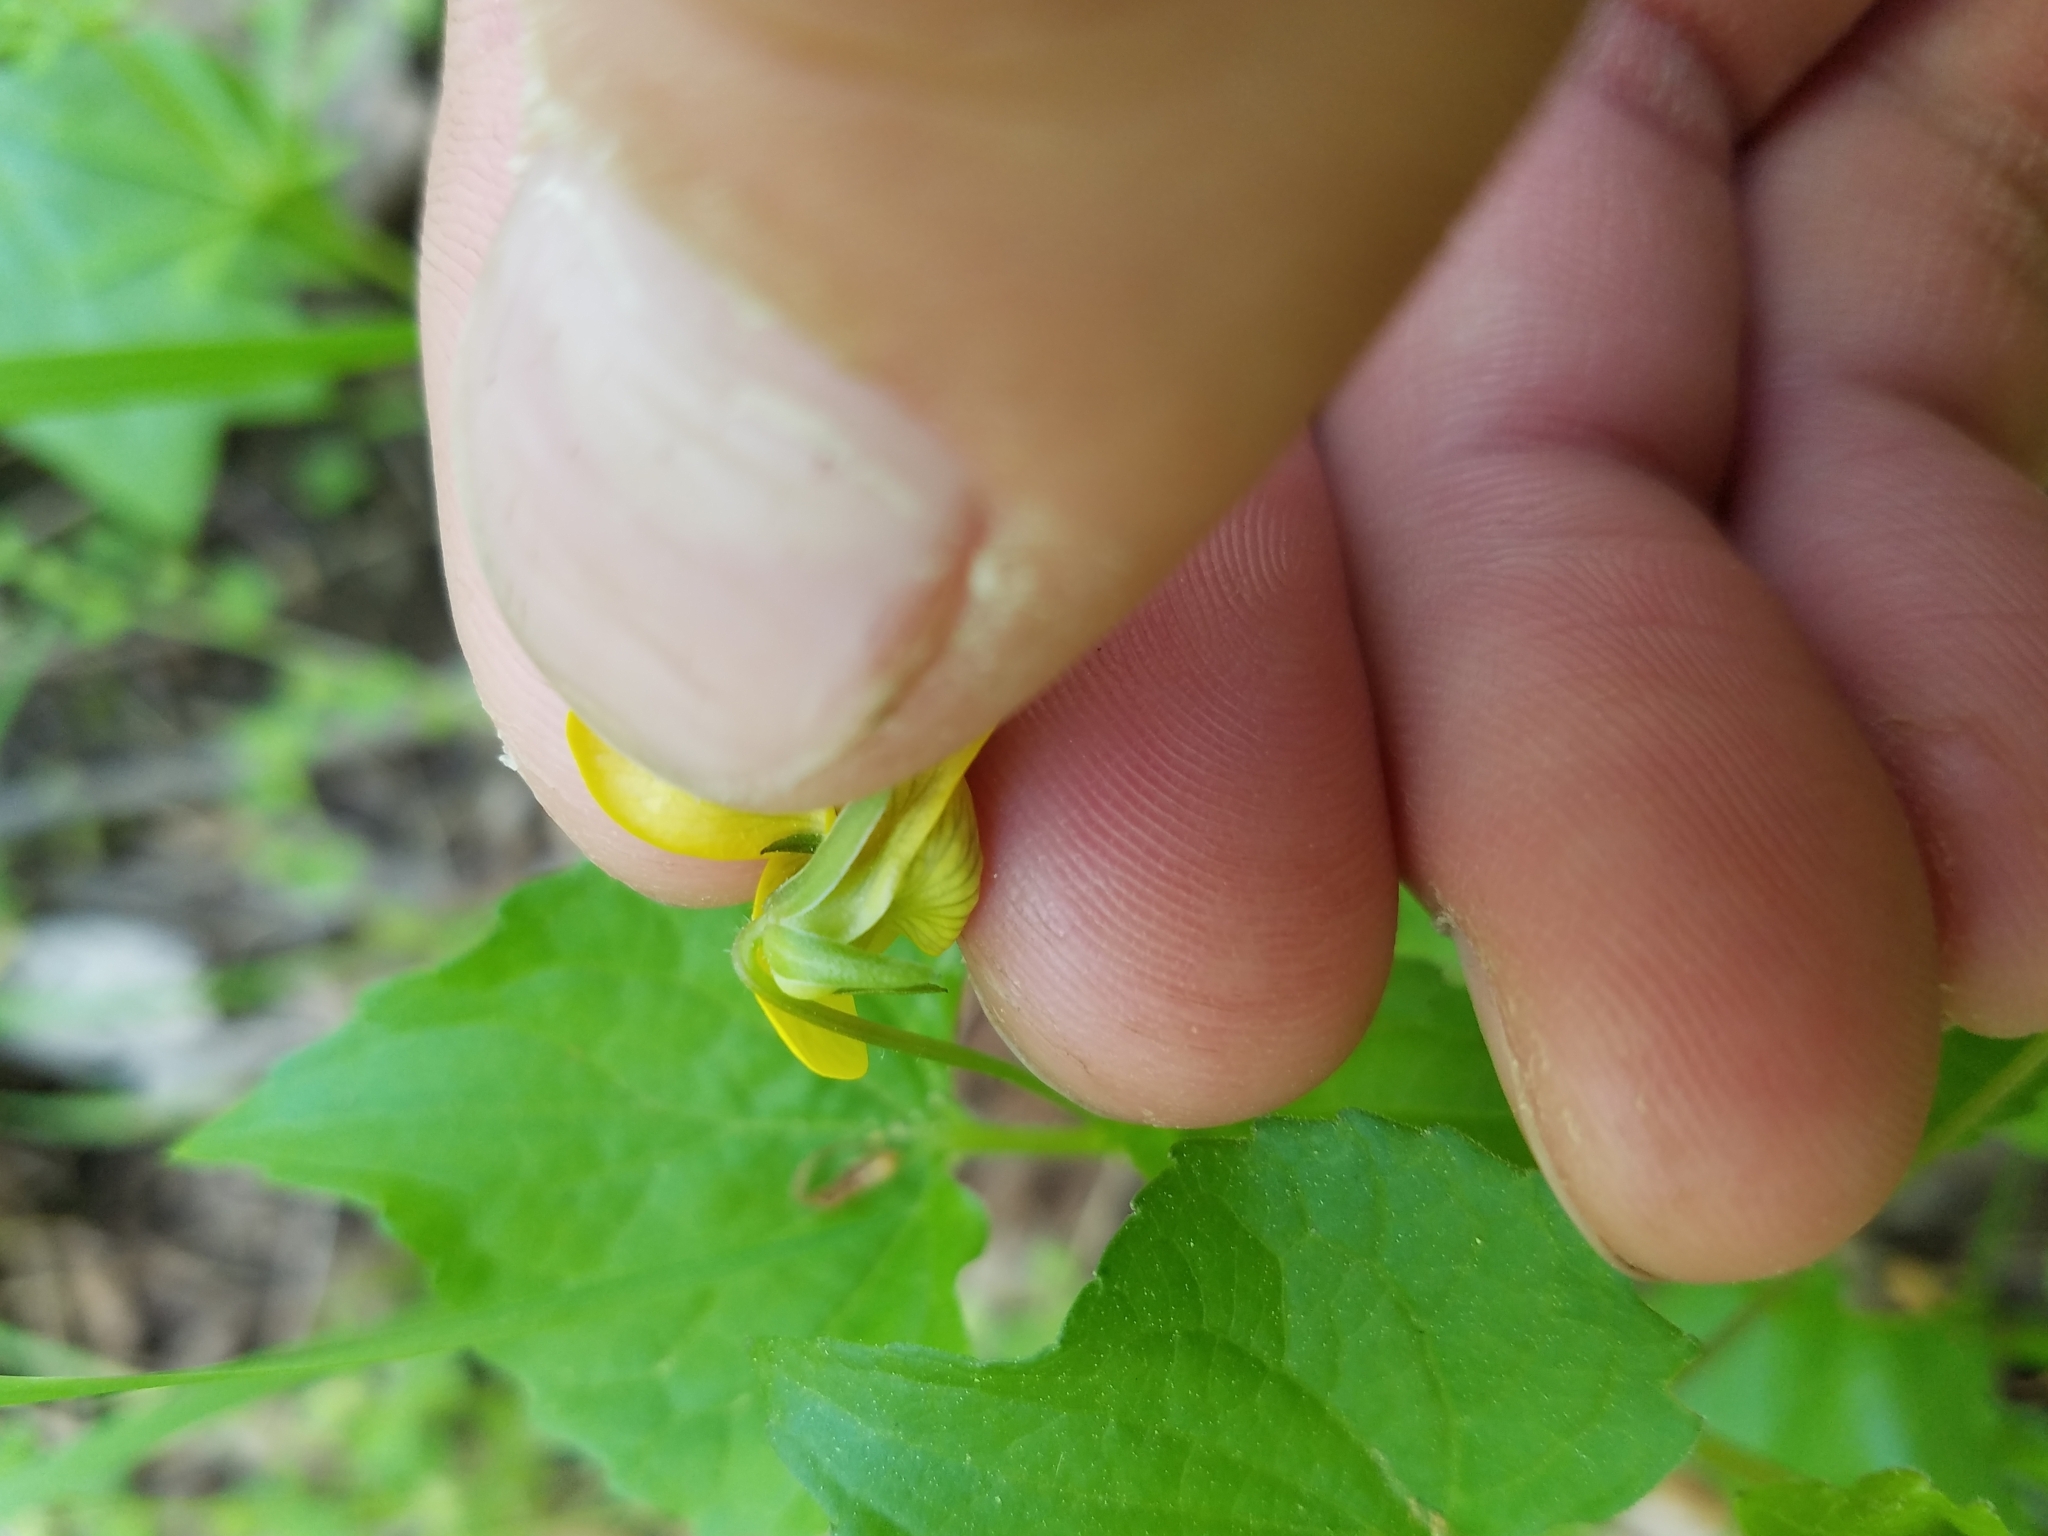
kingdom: Plantae
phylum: Tracheophyta
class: Magnoliopsida
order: Malpighiales
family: Violaceae
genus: Viola
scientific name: Viola eriocarpa
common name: Smooth yellow violet
